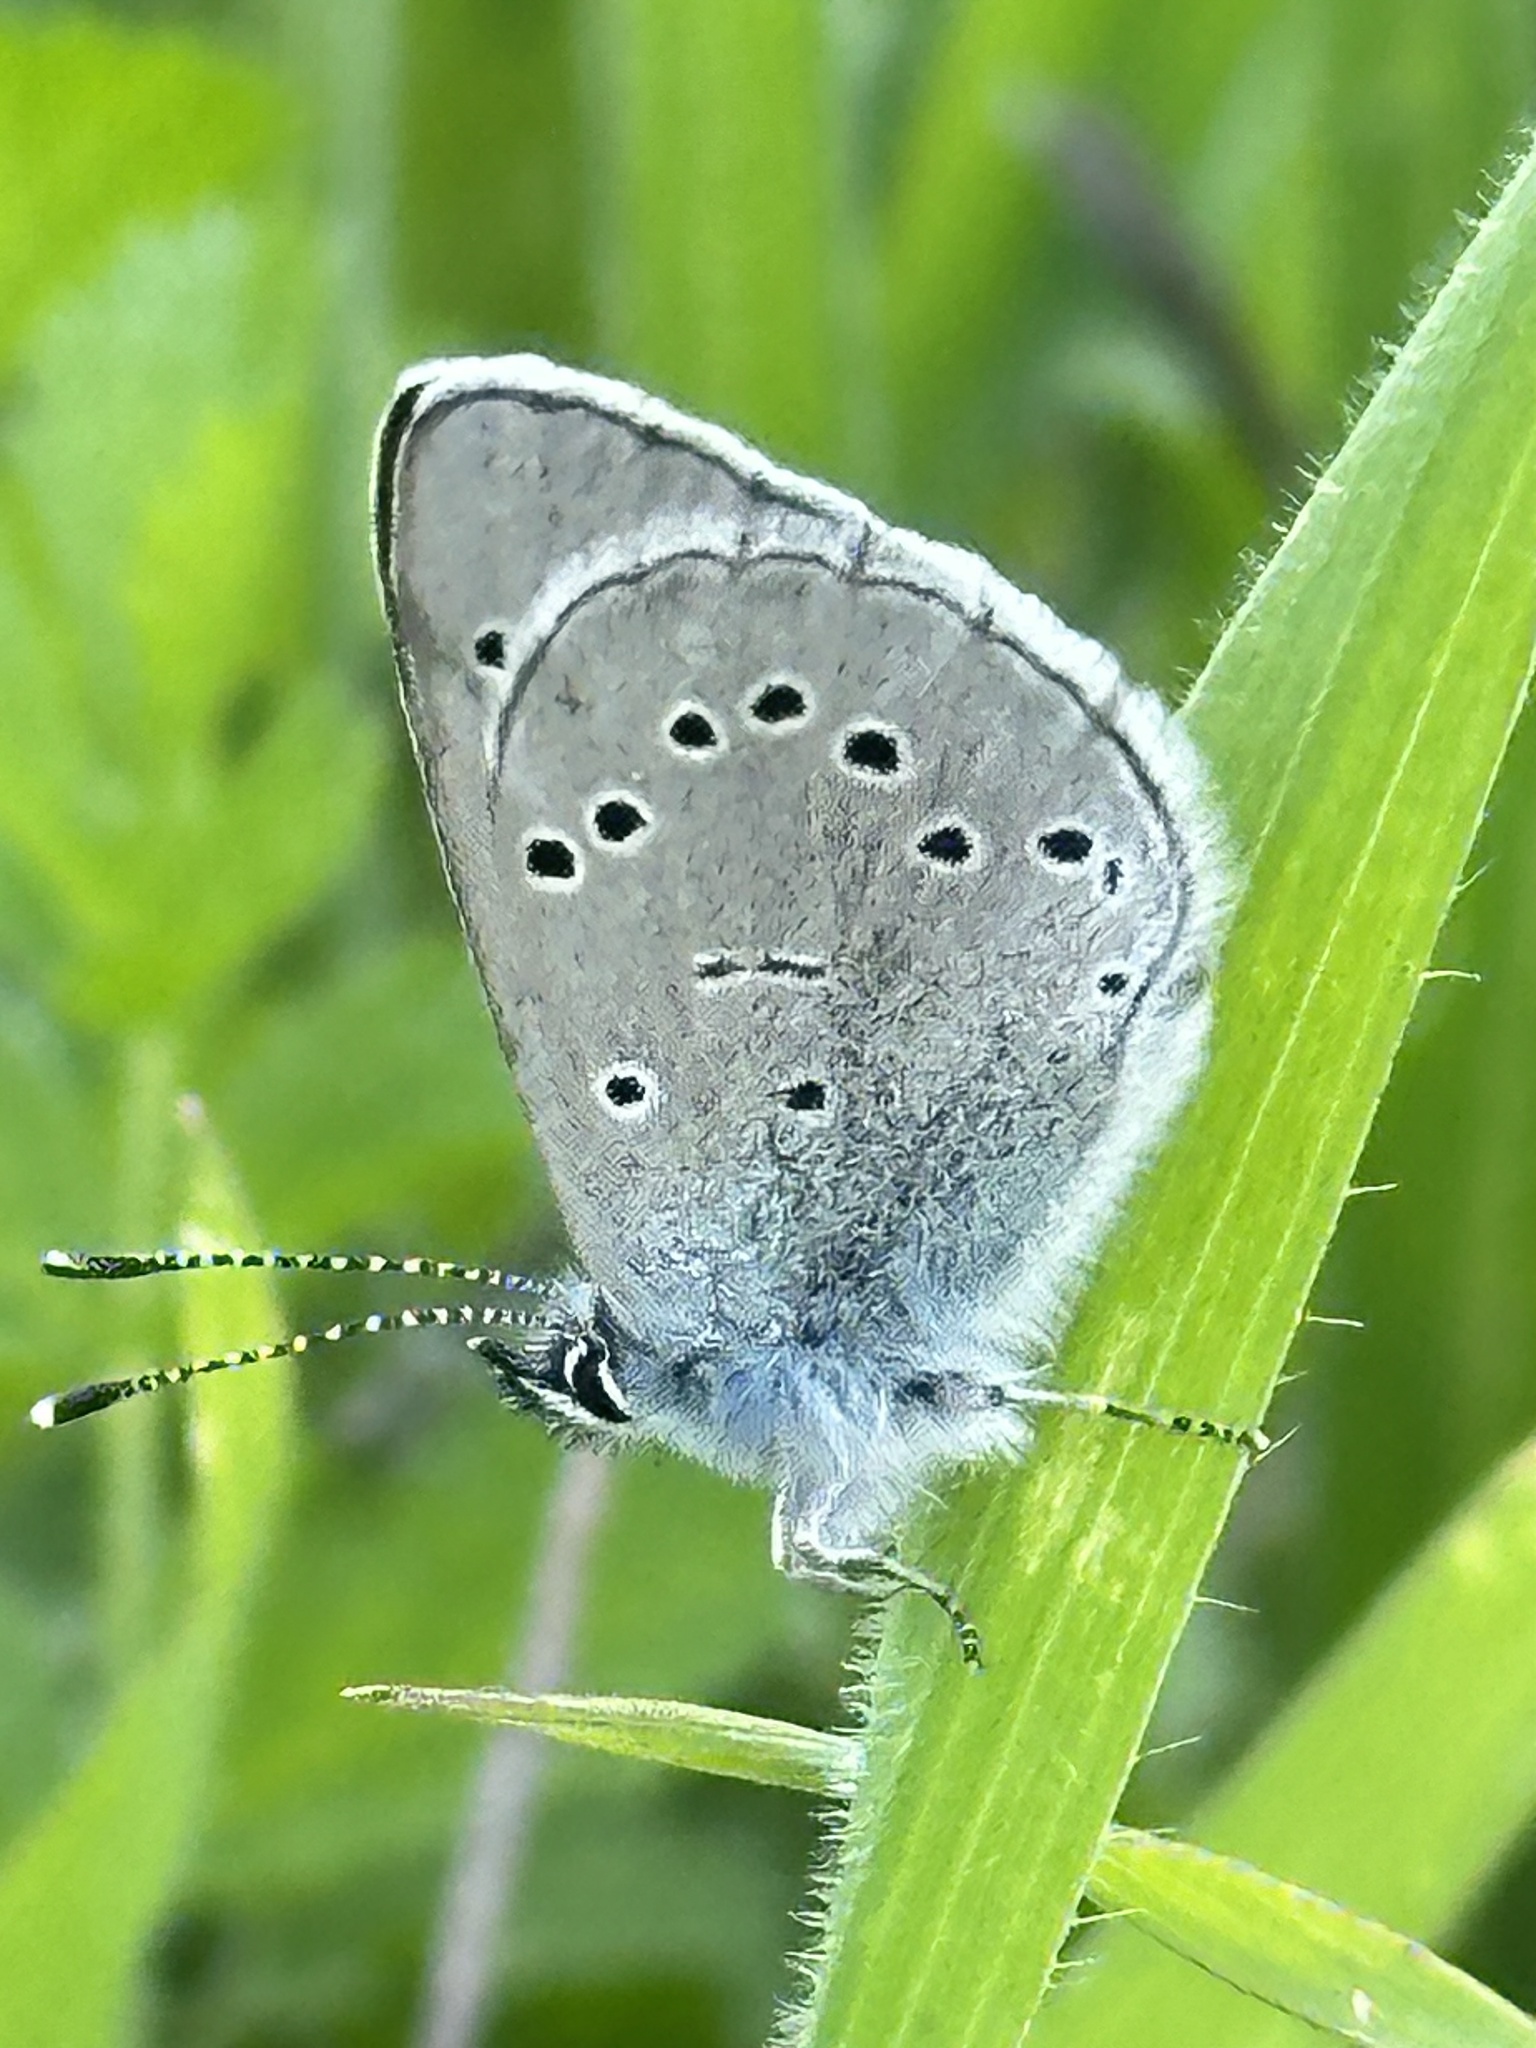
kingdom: Animalia
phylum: Arthropoda
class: Insecta
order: Lepidoptera
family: Lycaenidae
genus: Glaucopsyche
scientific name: Glaucopsyche lygdamus
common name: Silvery blue
